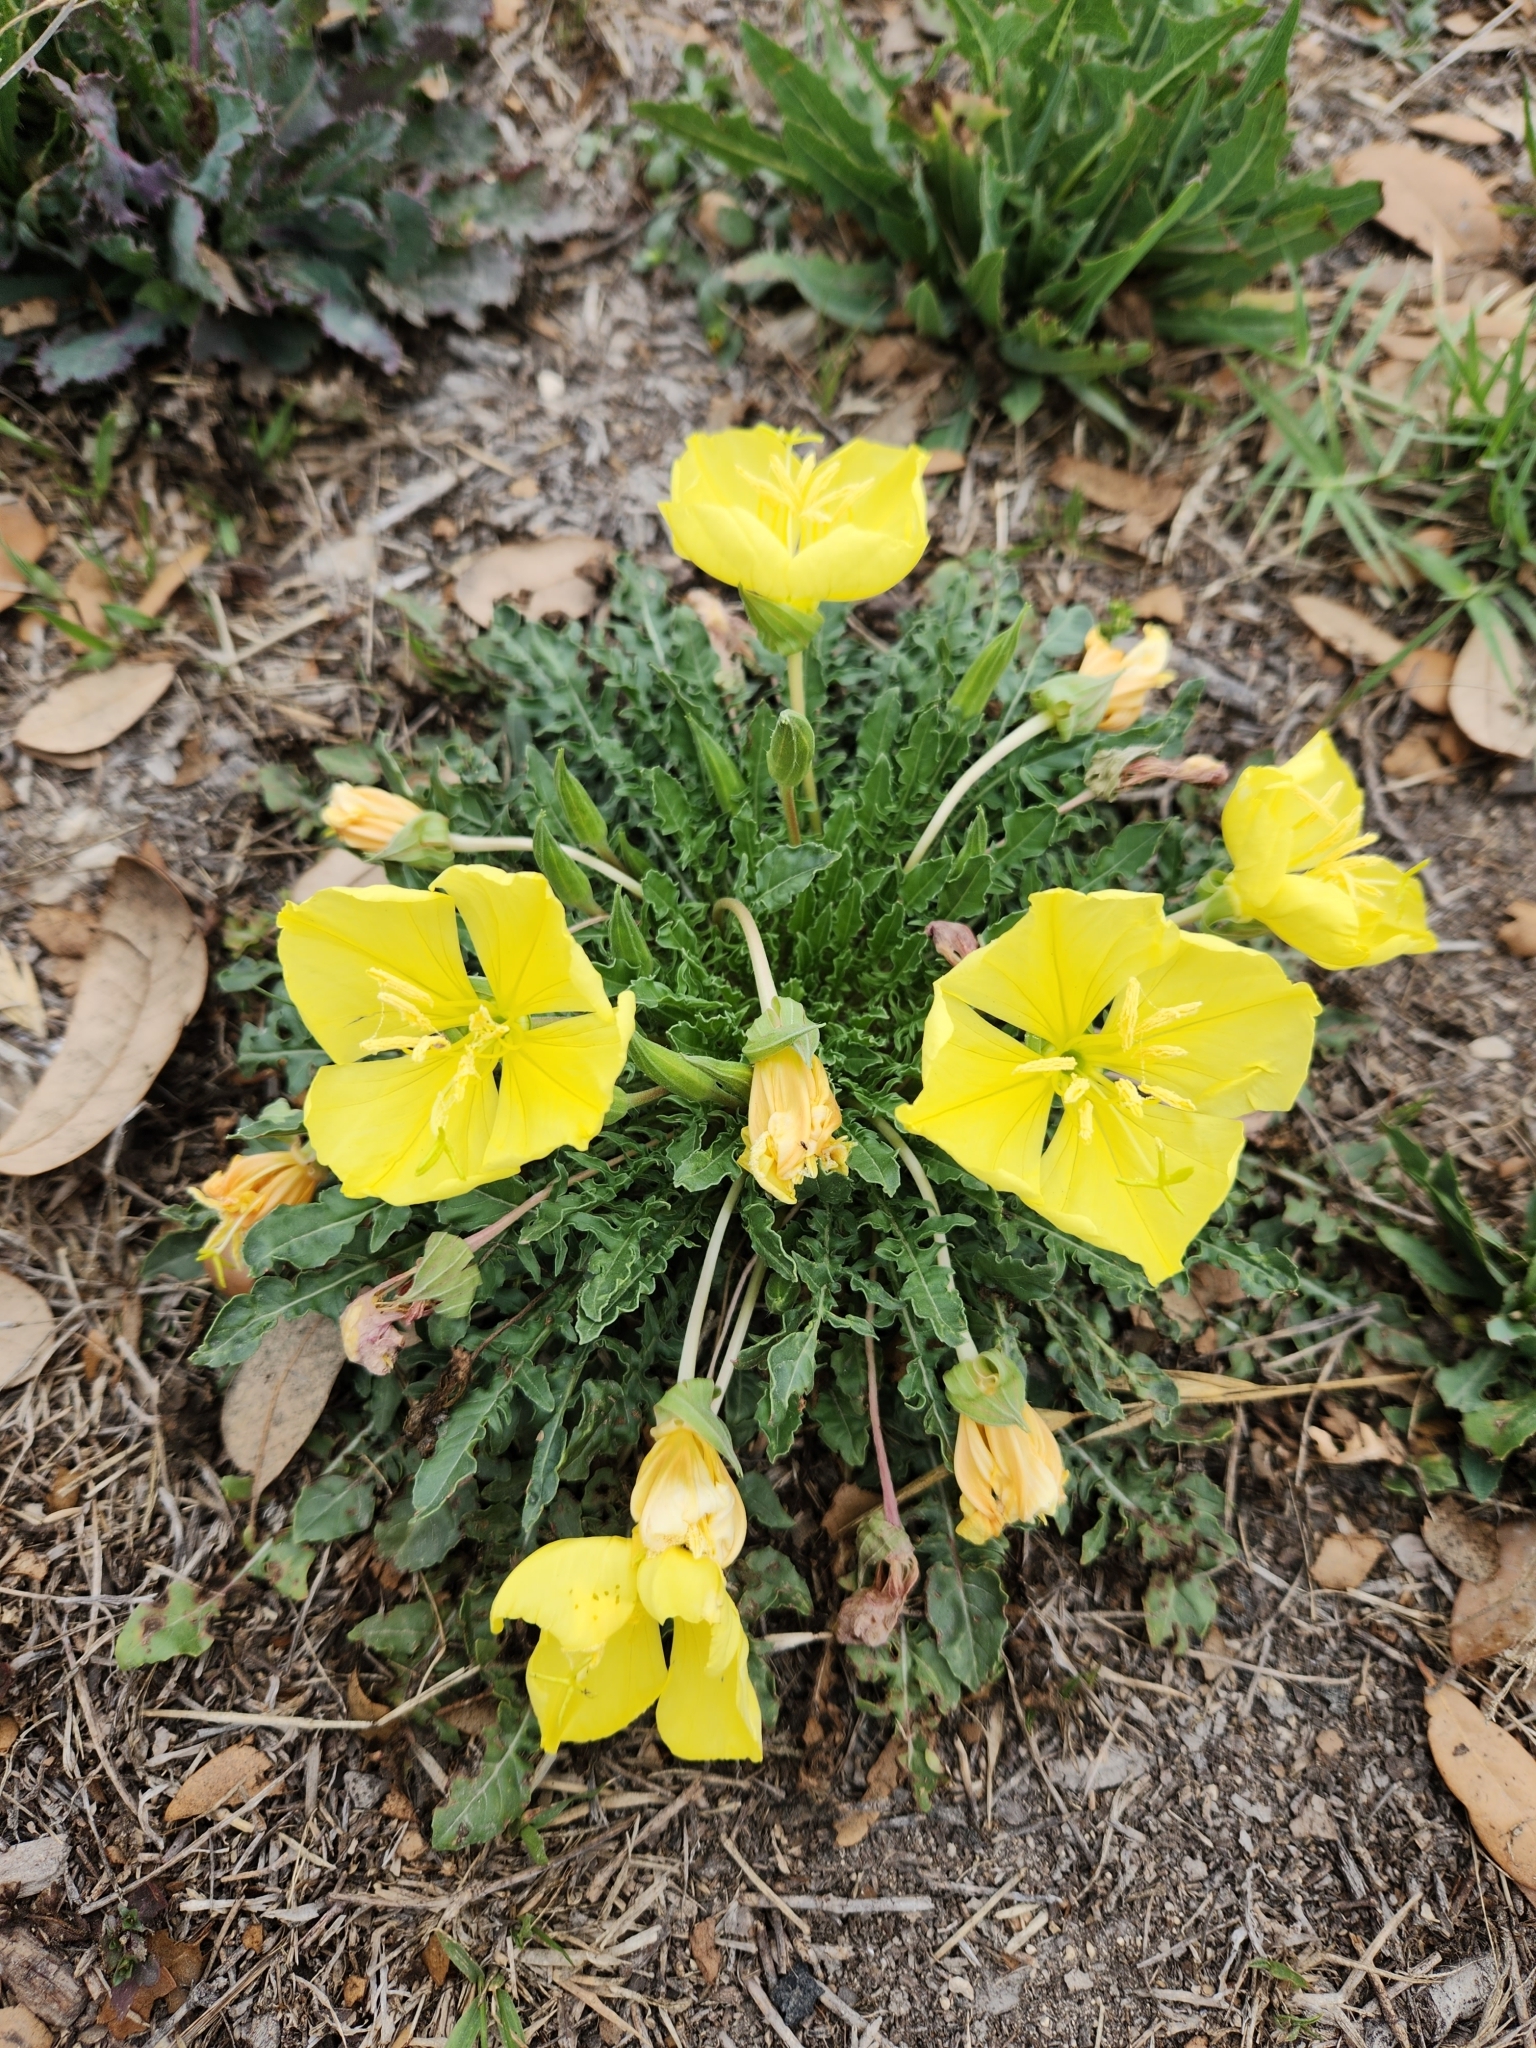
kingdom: Plantae
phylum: Tracheophyta
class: Magnoliopsida
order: Myrtales
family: Onagraceae
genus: Oenothera
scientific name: Oenothera triloba
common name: Sessile evening-primrose
